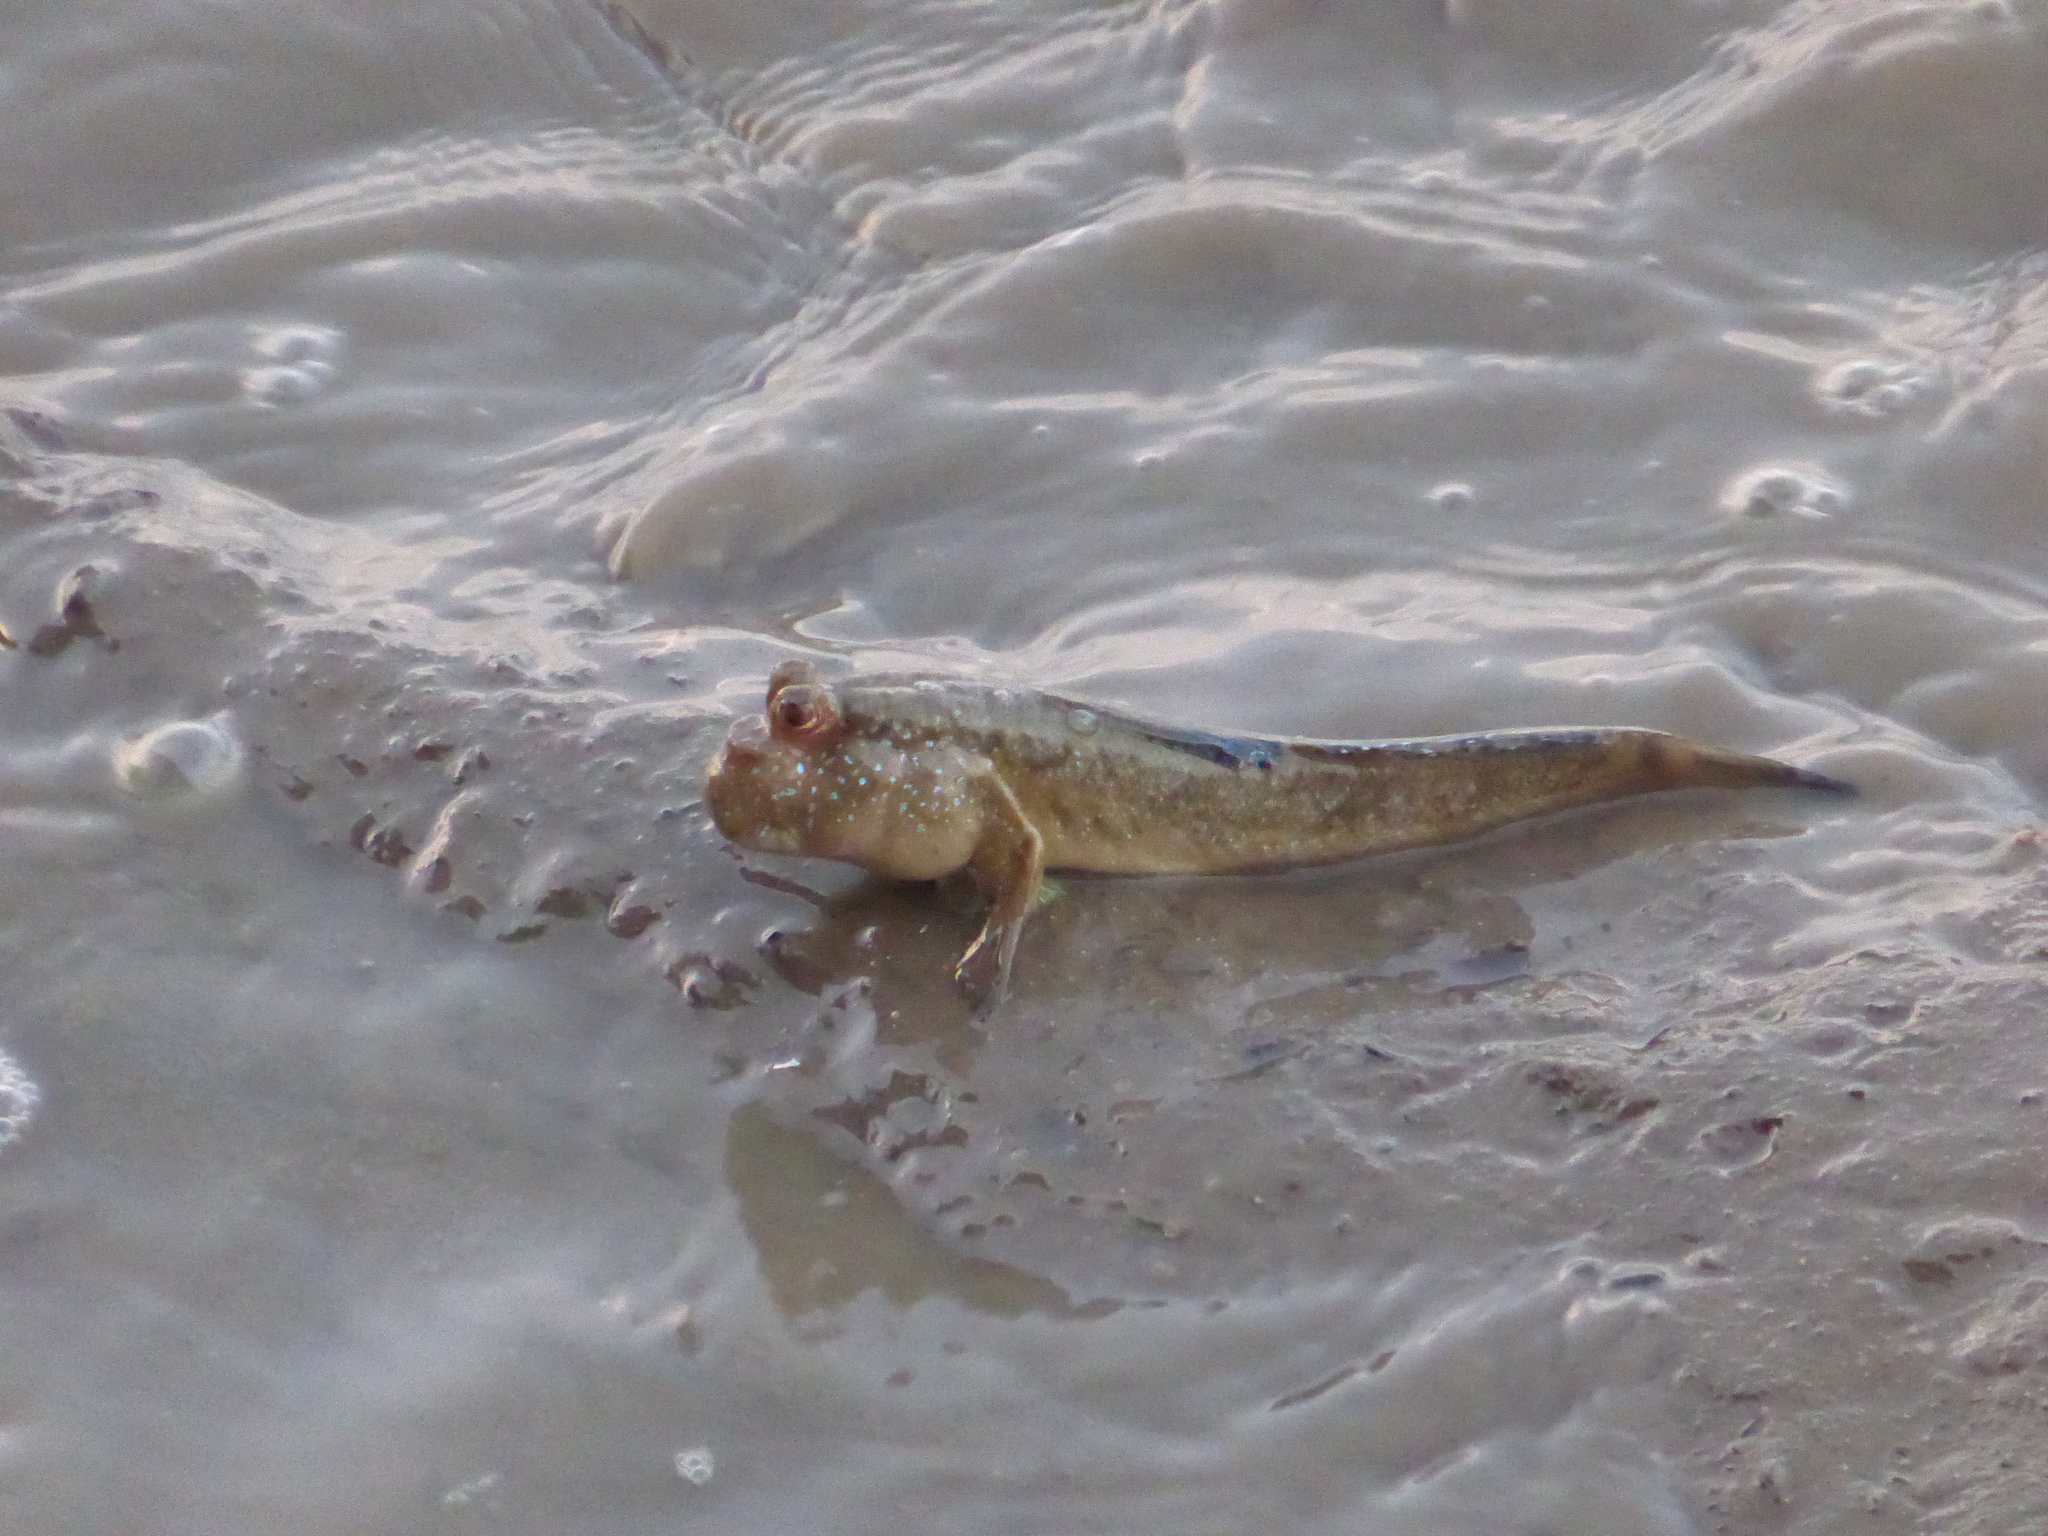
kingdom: Animalia
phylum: Chordata
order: Perciformes
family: Gobiidae
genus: Periophthalmus
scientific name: Periophthalmus barbarus
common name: Atlantic mudskipper
